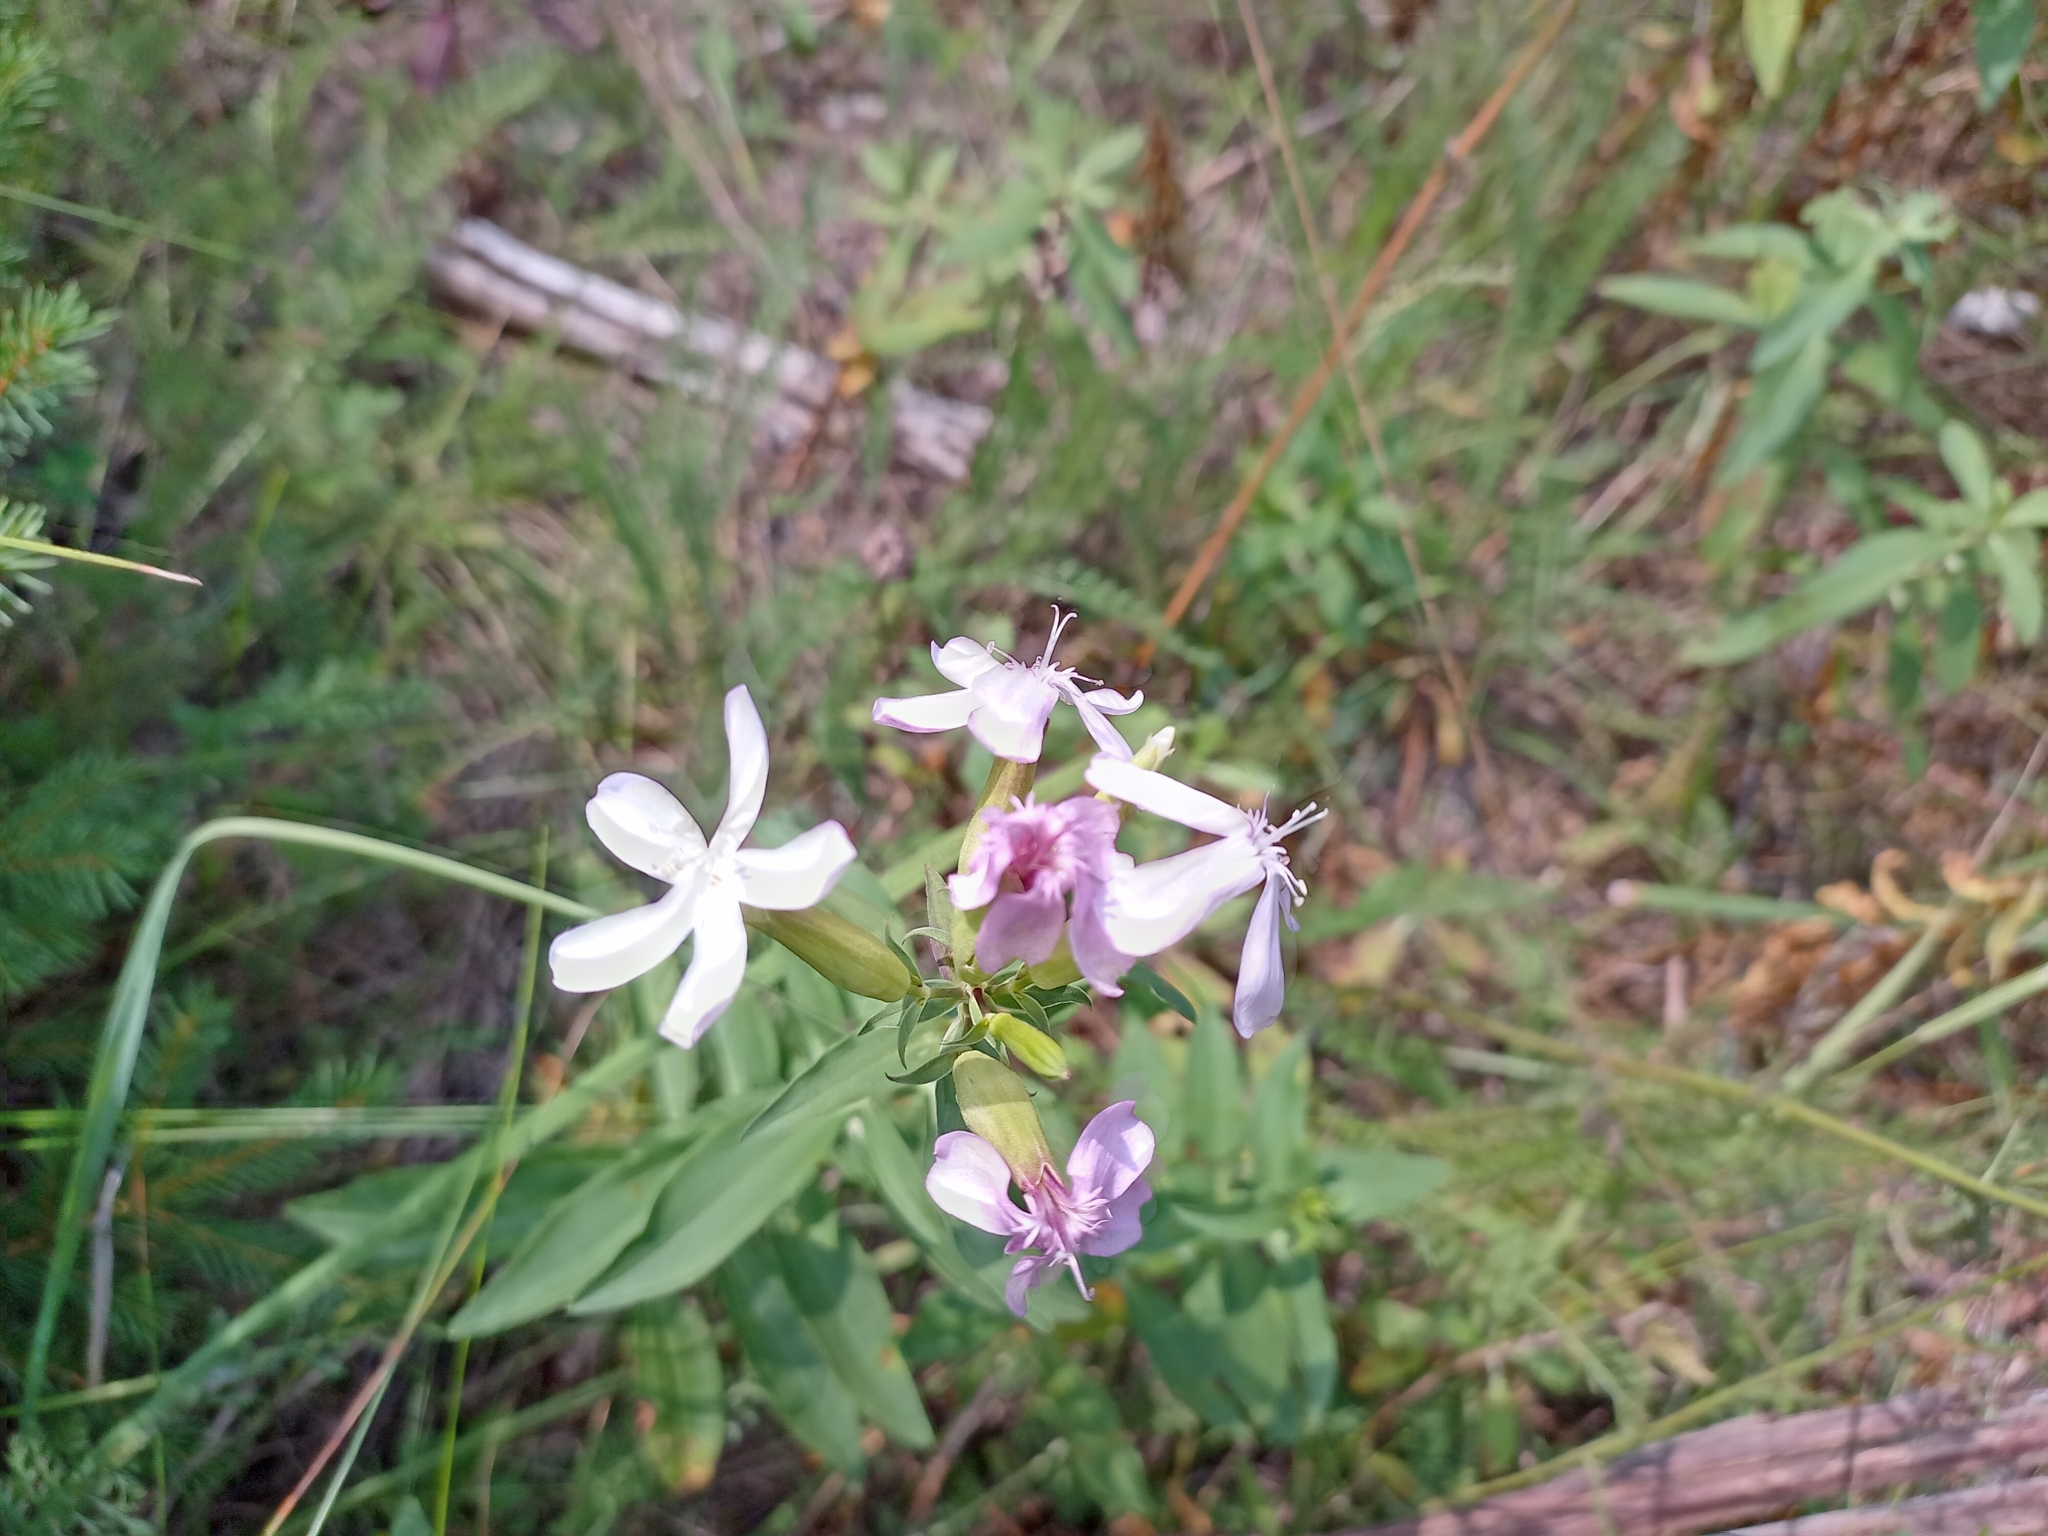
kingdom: Plantae
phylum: Tracheophyta
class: Magnoliopsida
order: Caryophyllales
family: Caryophyllaceae
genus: Saponaria
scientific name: Saponaria officinalis
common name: Soapwort
